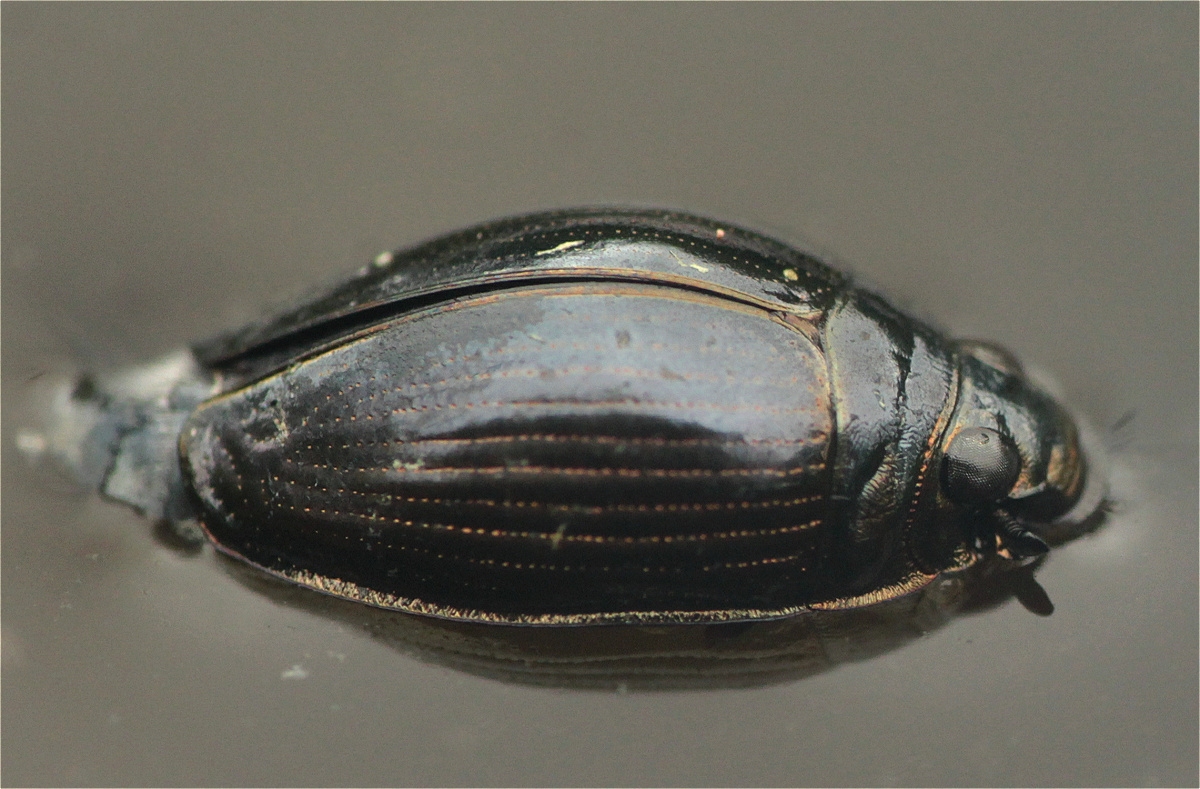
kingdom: Animalia
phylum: Arthropoda
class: Insecta
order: Coleoptera
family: Gyrinidae
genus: Gyrinus
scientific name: Gyrinus gibbus
